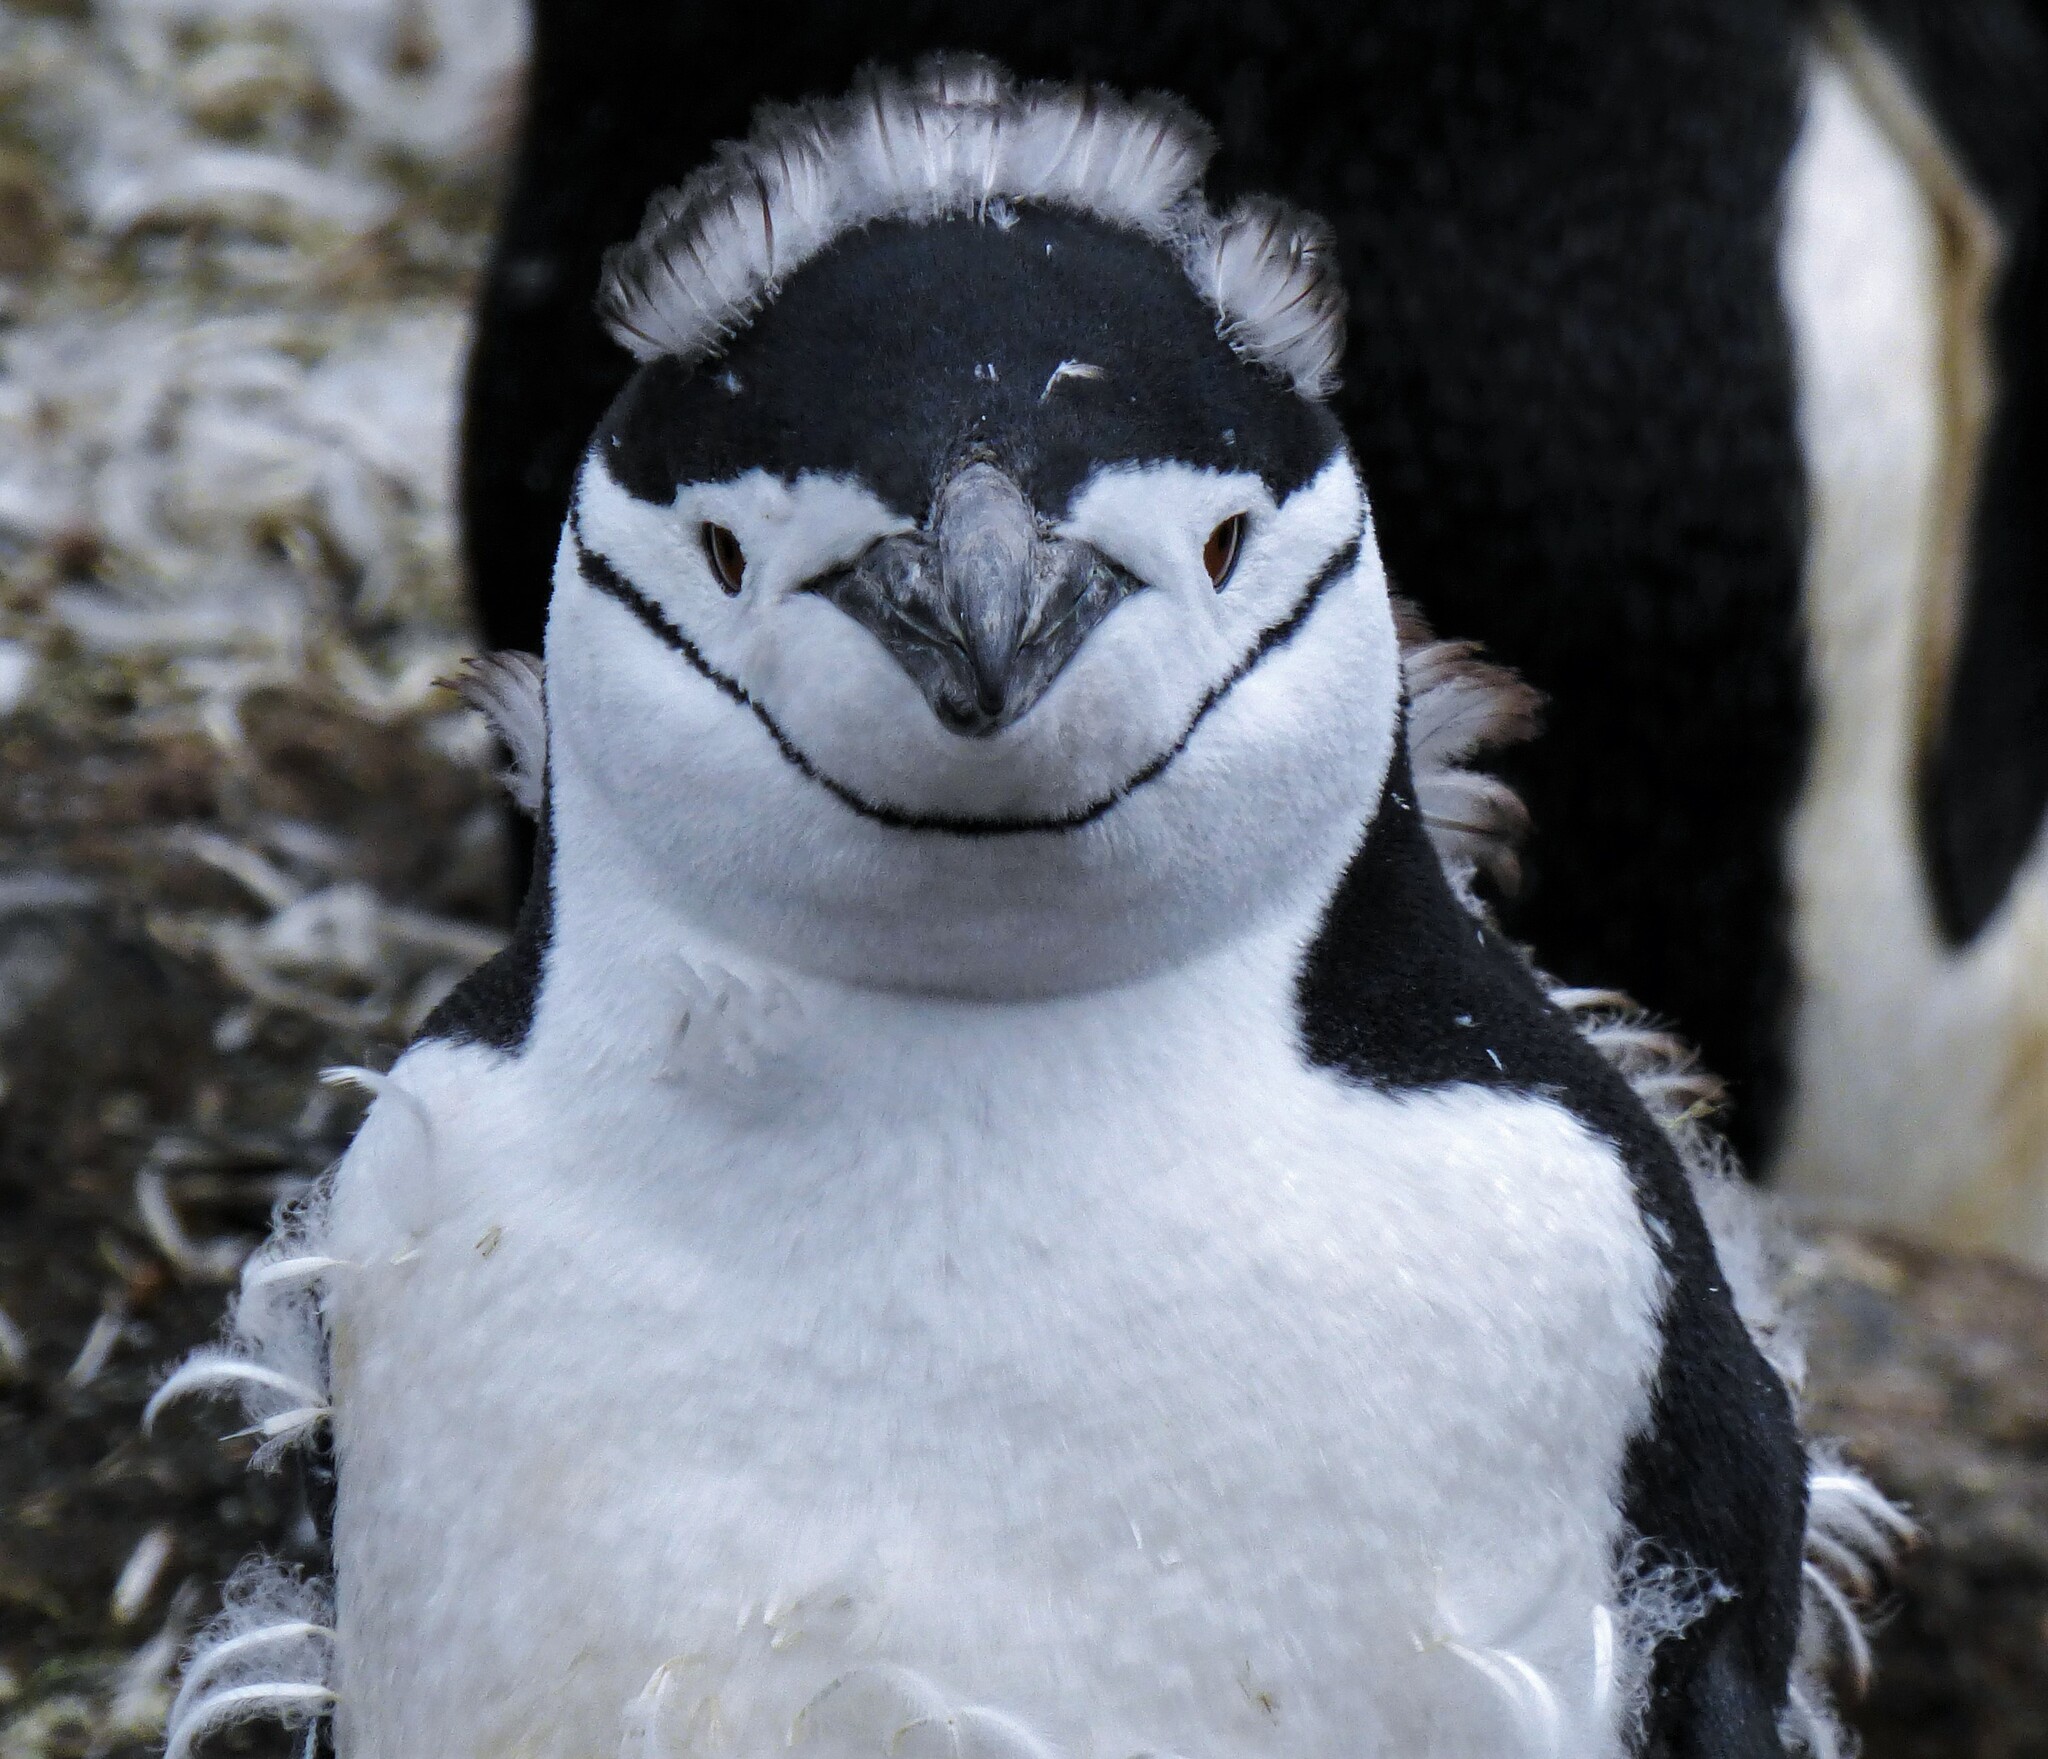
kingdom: Animalia
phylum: Chordata
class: Aves
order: Sphenisciformes
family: Spheniscidae
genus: Pygoscelis
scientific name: Pygoscelis antarcticus
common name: Chinstrap penguin
